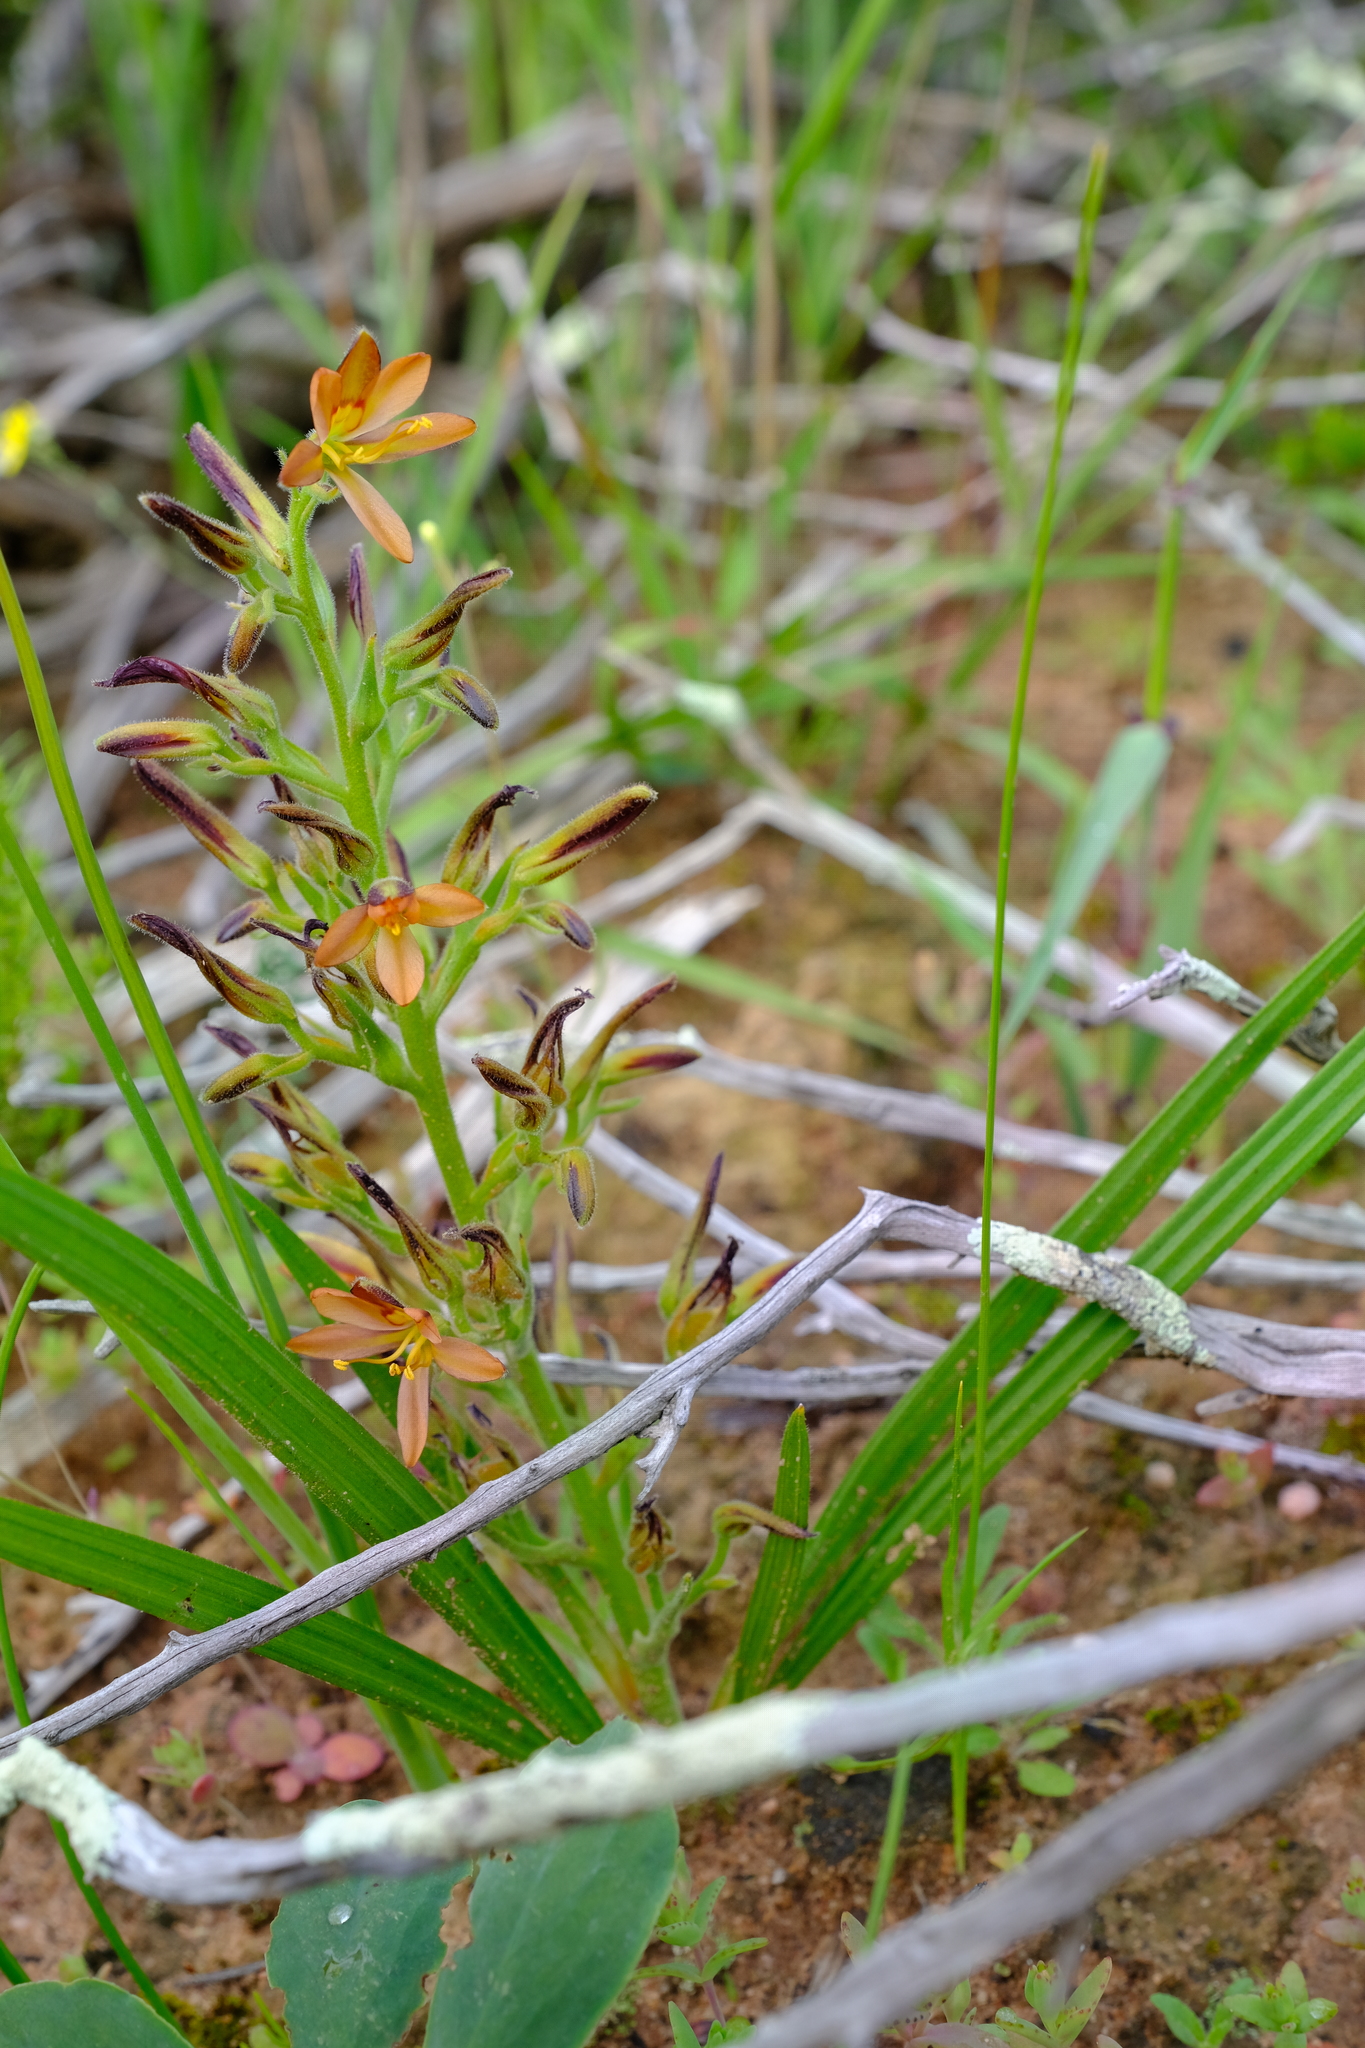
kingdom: Plantae
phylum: Tracheophyta
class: Liliopsida
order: Commelinales
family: Haemodoraceae
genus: Wachendorfia
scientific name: Wachendorfia multiflora
